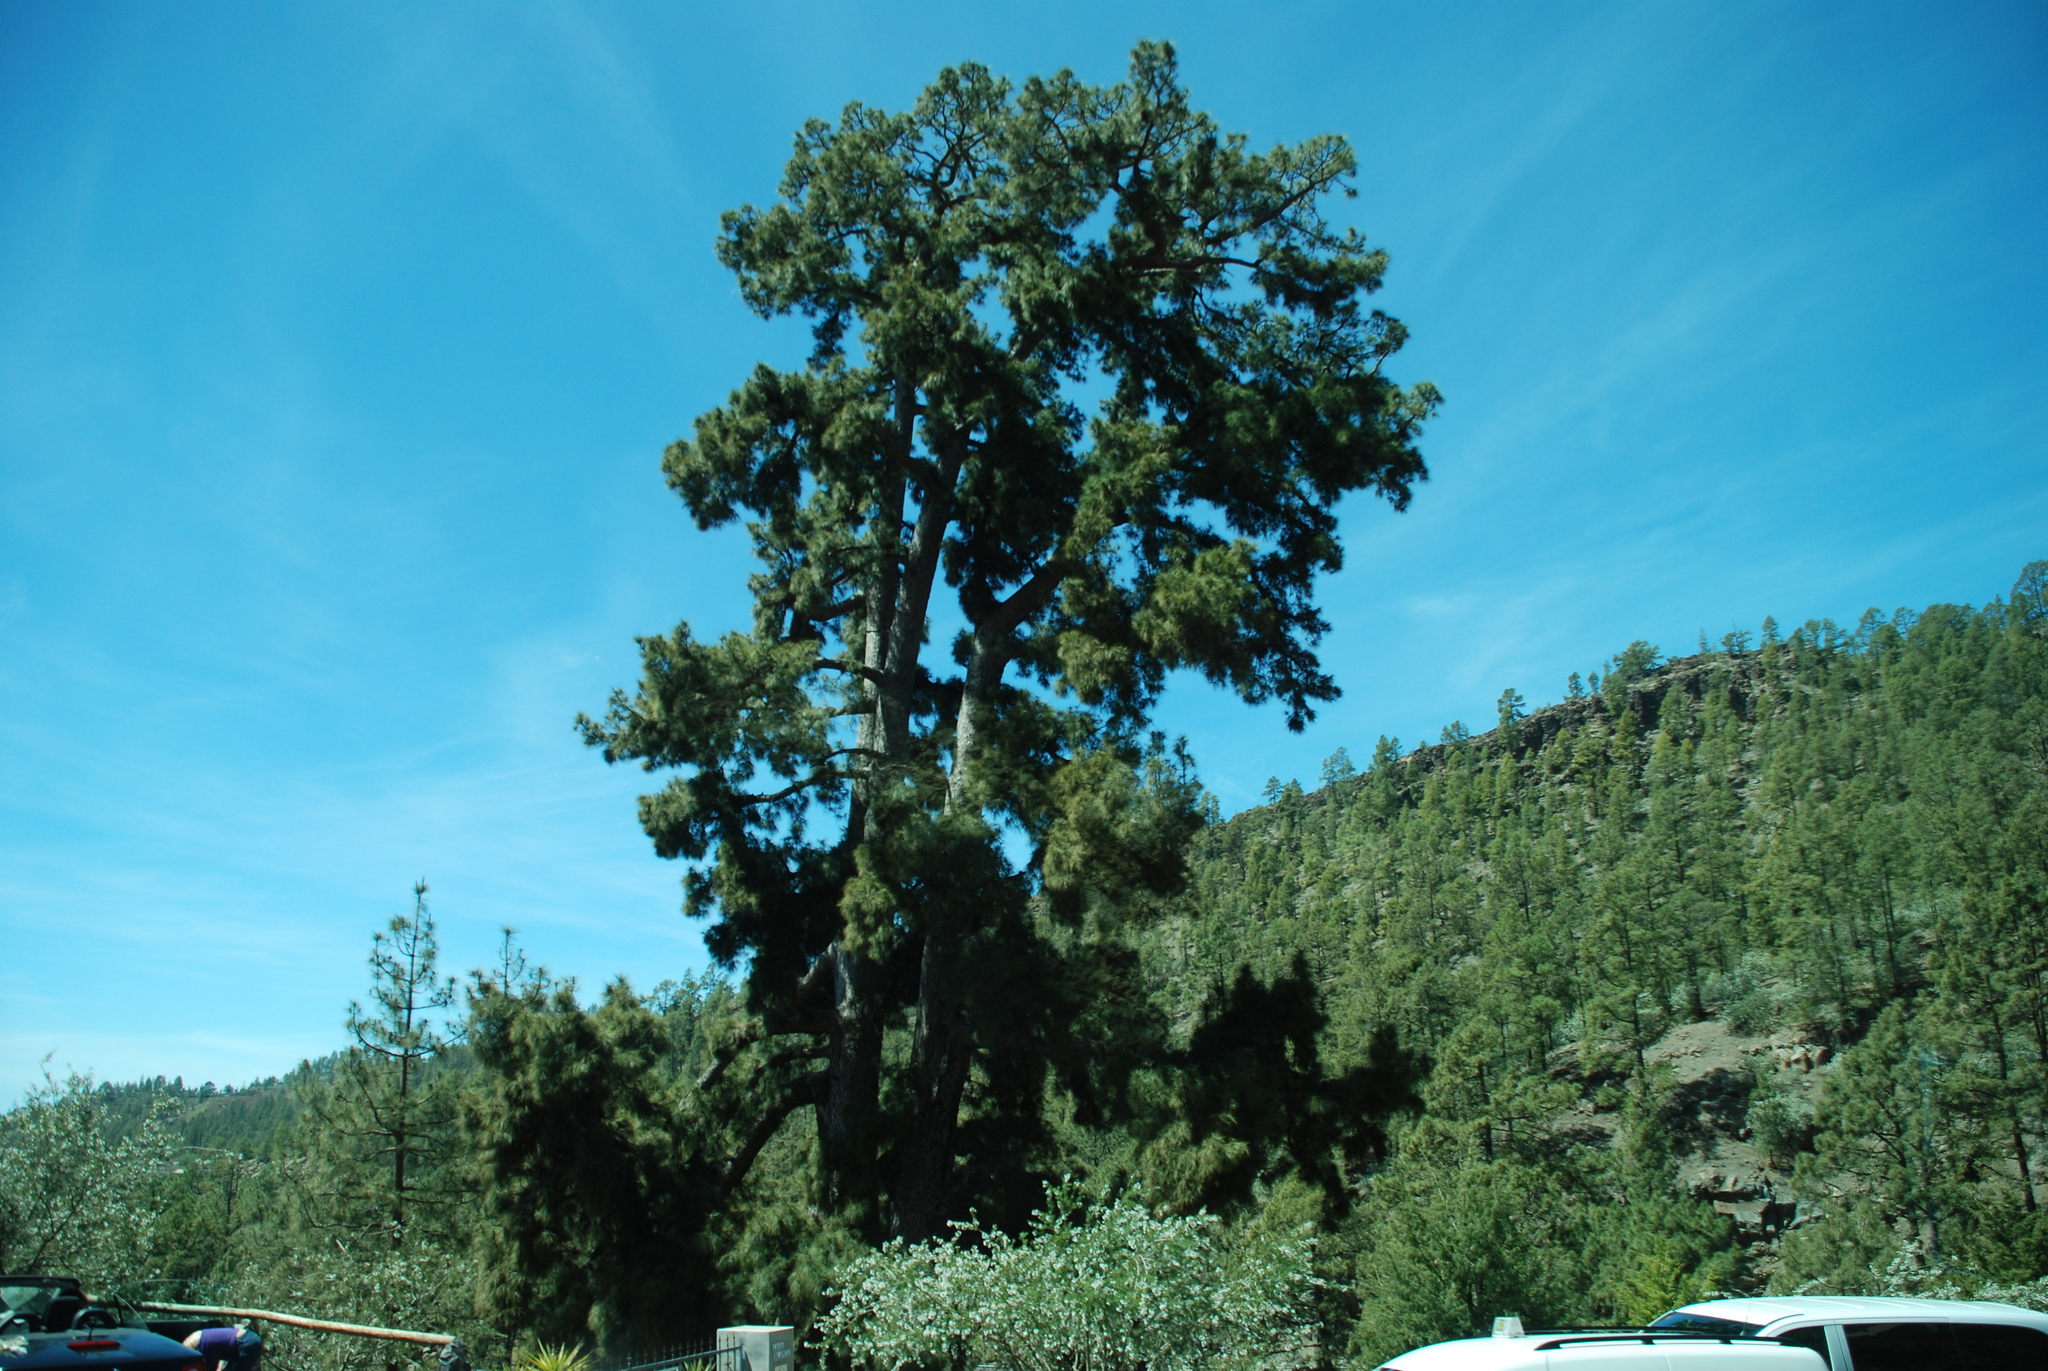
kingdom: Plantae
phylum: Tracheophyta
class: Pinopsida
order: Pinales
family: Pinaceae
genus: Pinus
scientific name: Pinus canariensis
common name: Canary islands pine
